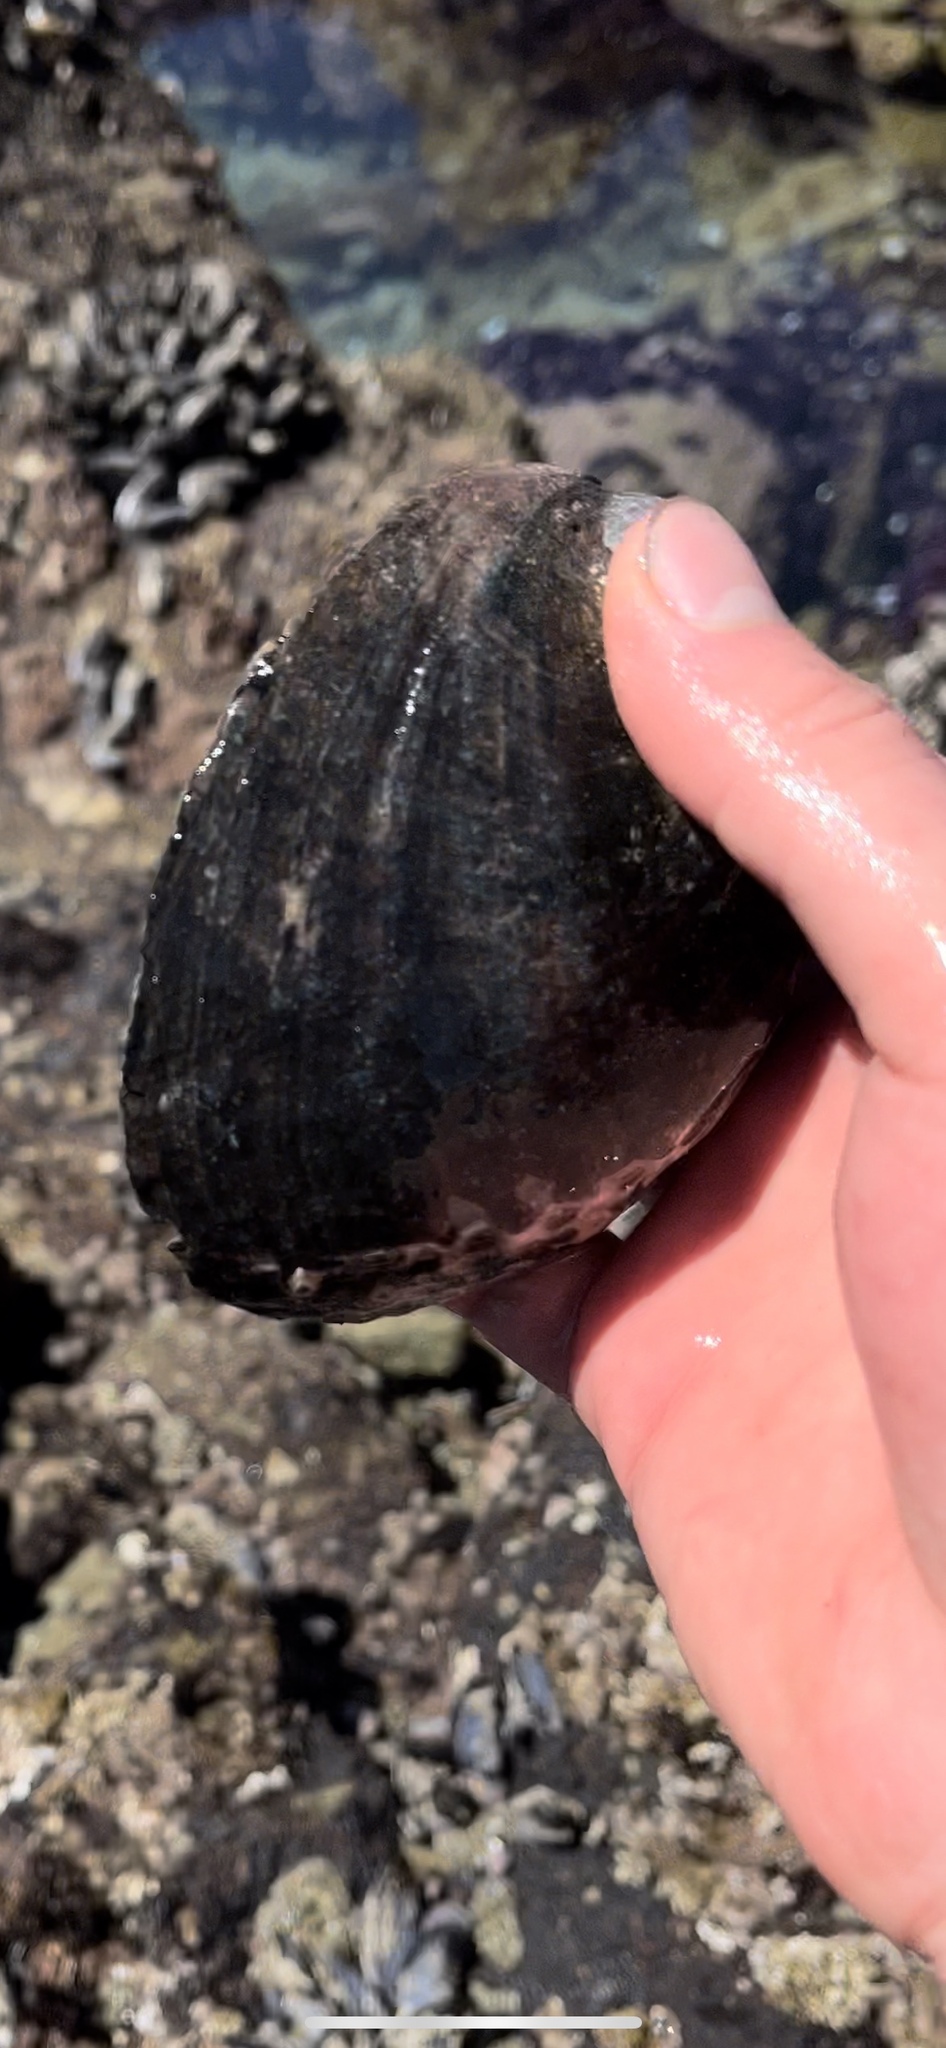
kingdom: Animalia
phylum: Mollusca
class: Gastropoda
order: Lepetellida
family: Haliotidae
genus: Haliotis
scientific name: Haliotis cracherodii
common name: Black abalone
